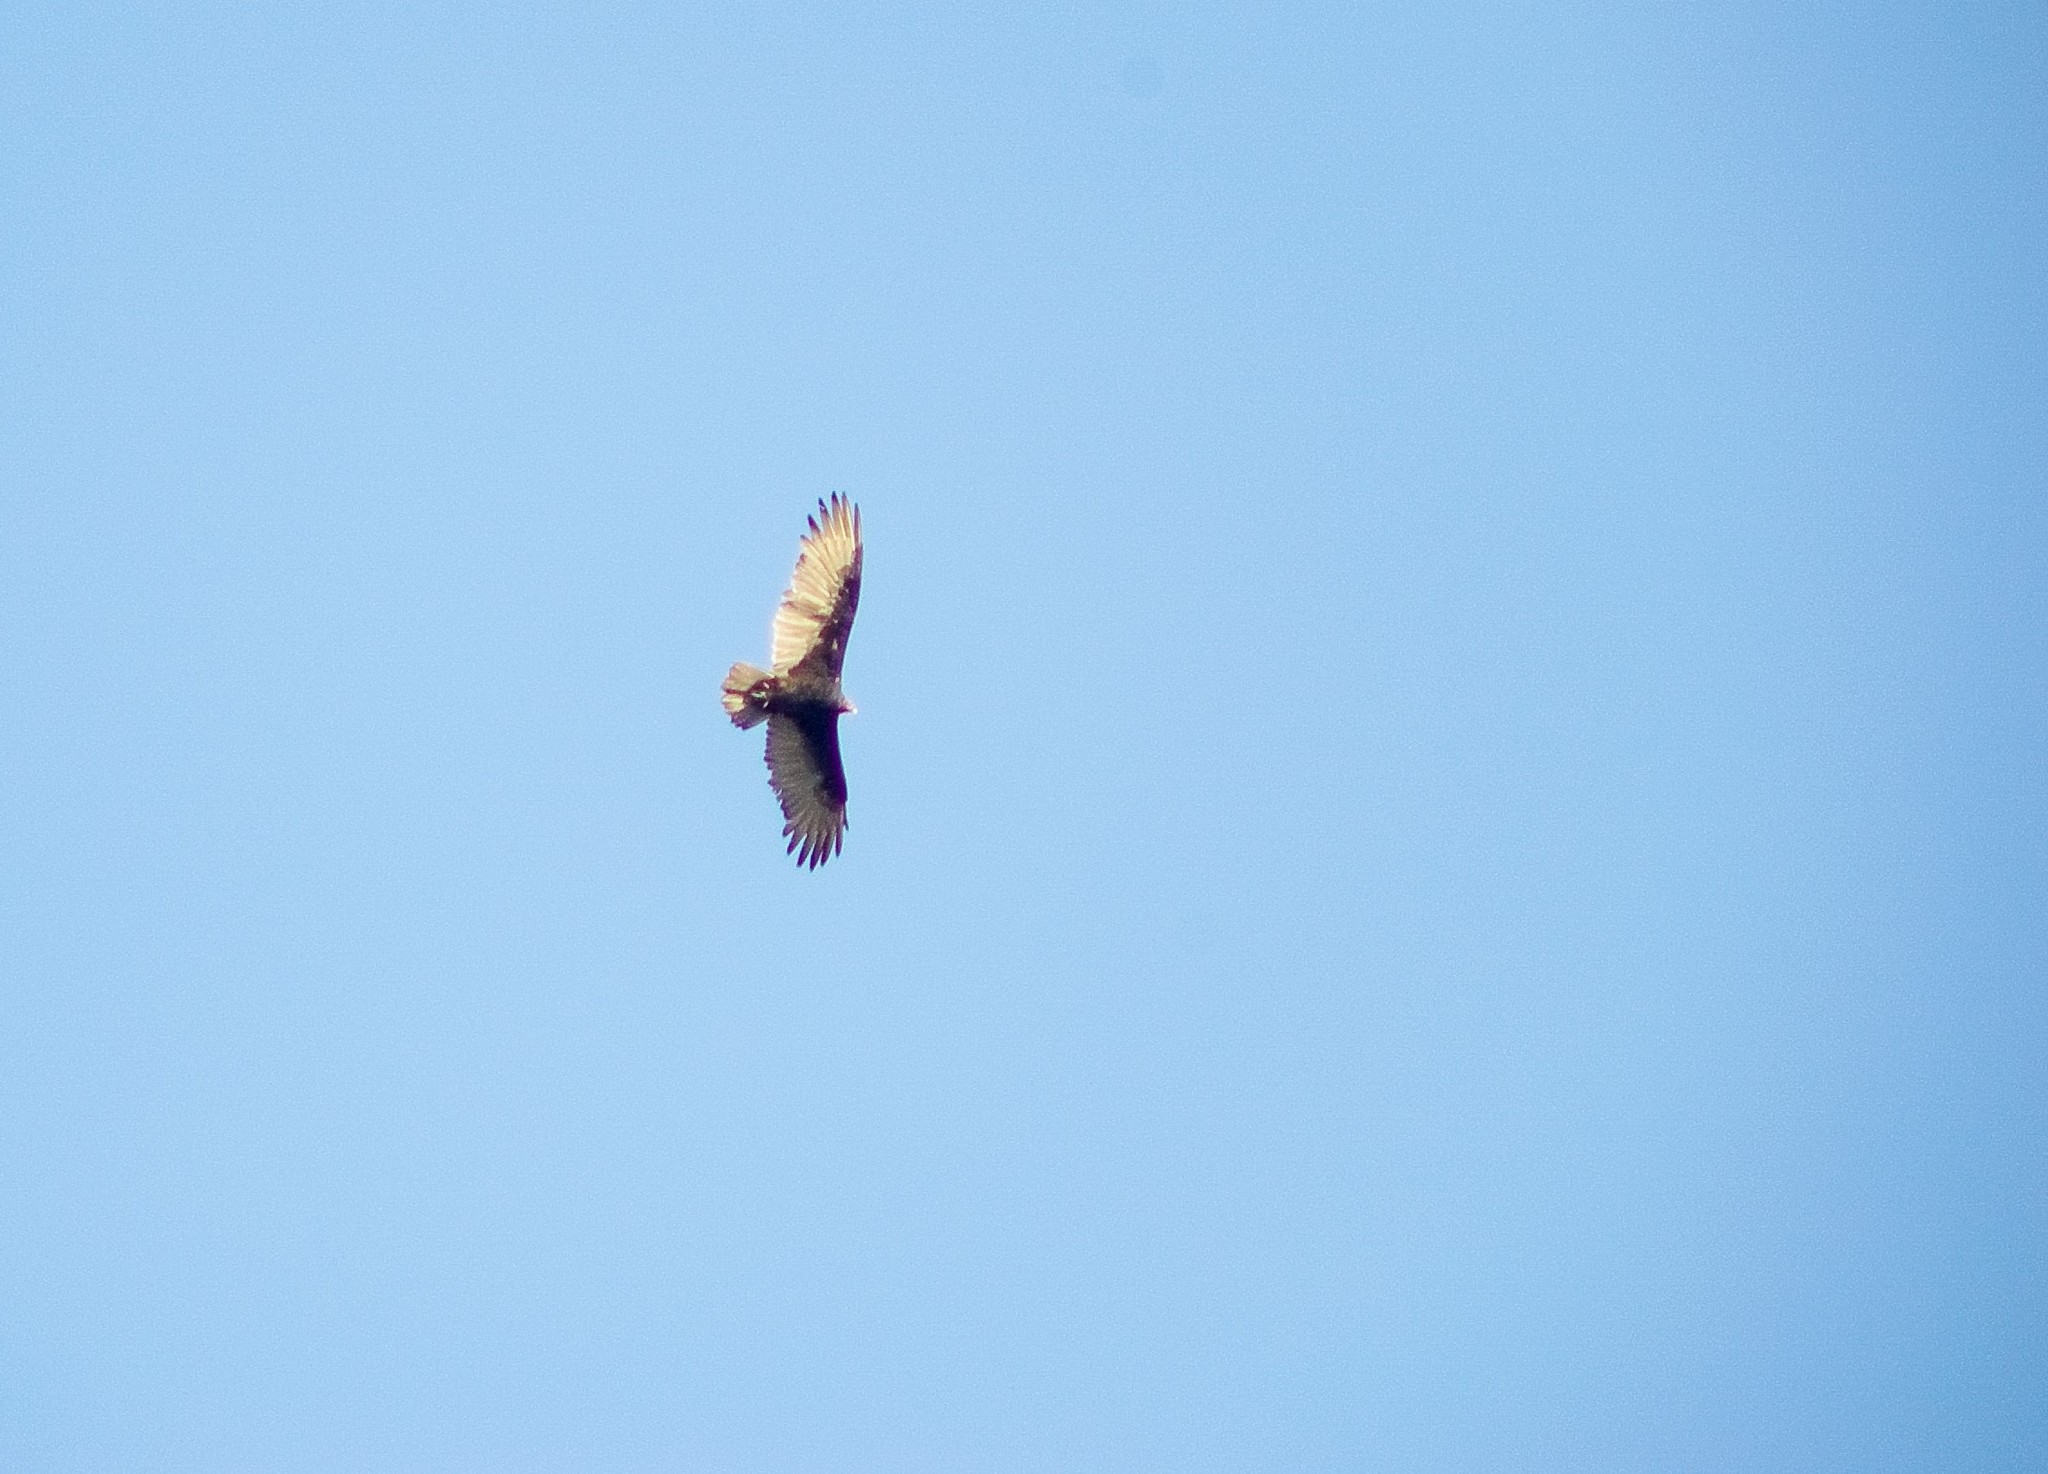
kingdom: Animalia
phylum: Chordata
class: Aves
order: Accipitriformes
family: Cathartidae
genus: Cathartes
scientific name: Cathartes aura
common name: Turkey vulture
